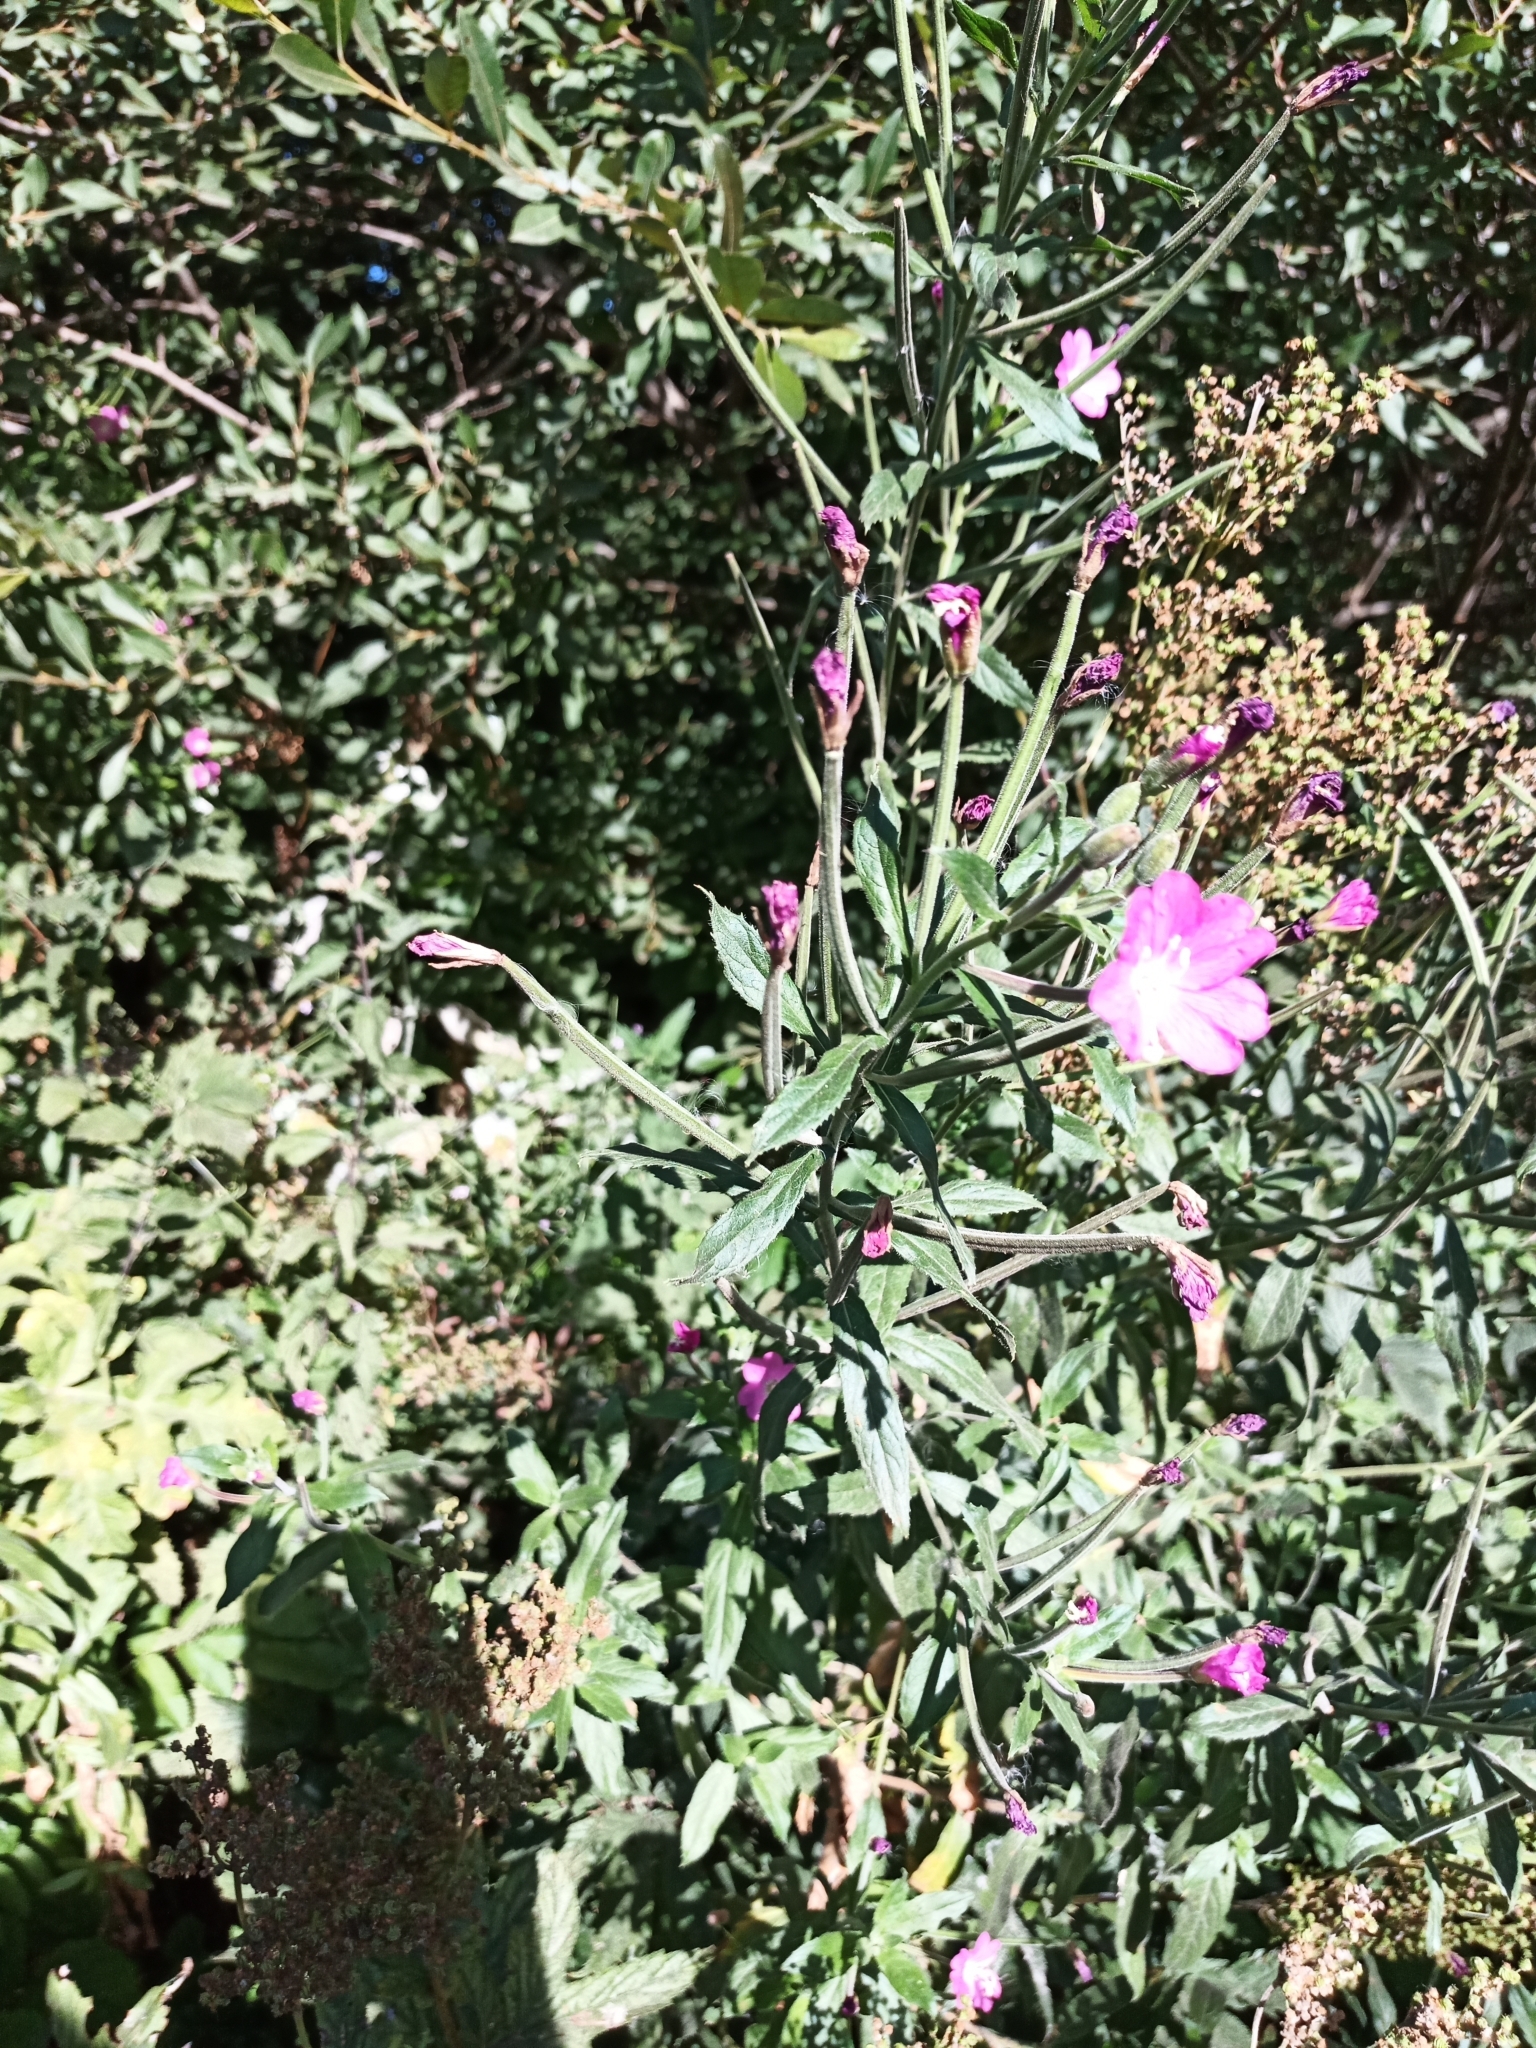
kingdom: Plantae
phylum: Tracheophyta
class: Magnoliopsida
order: Myrtales
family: Onagraceae
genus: Epilobium
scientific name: Epilobium hirsutum
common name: Great willowherb
